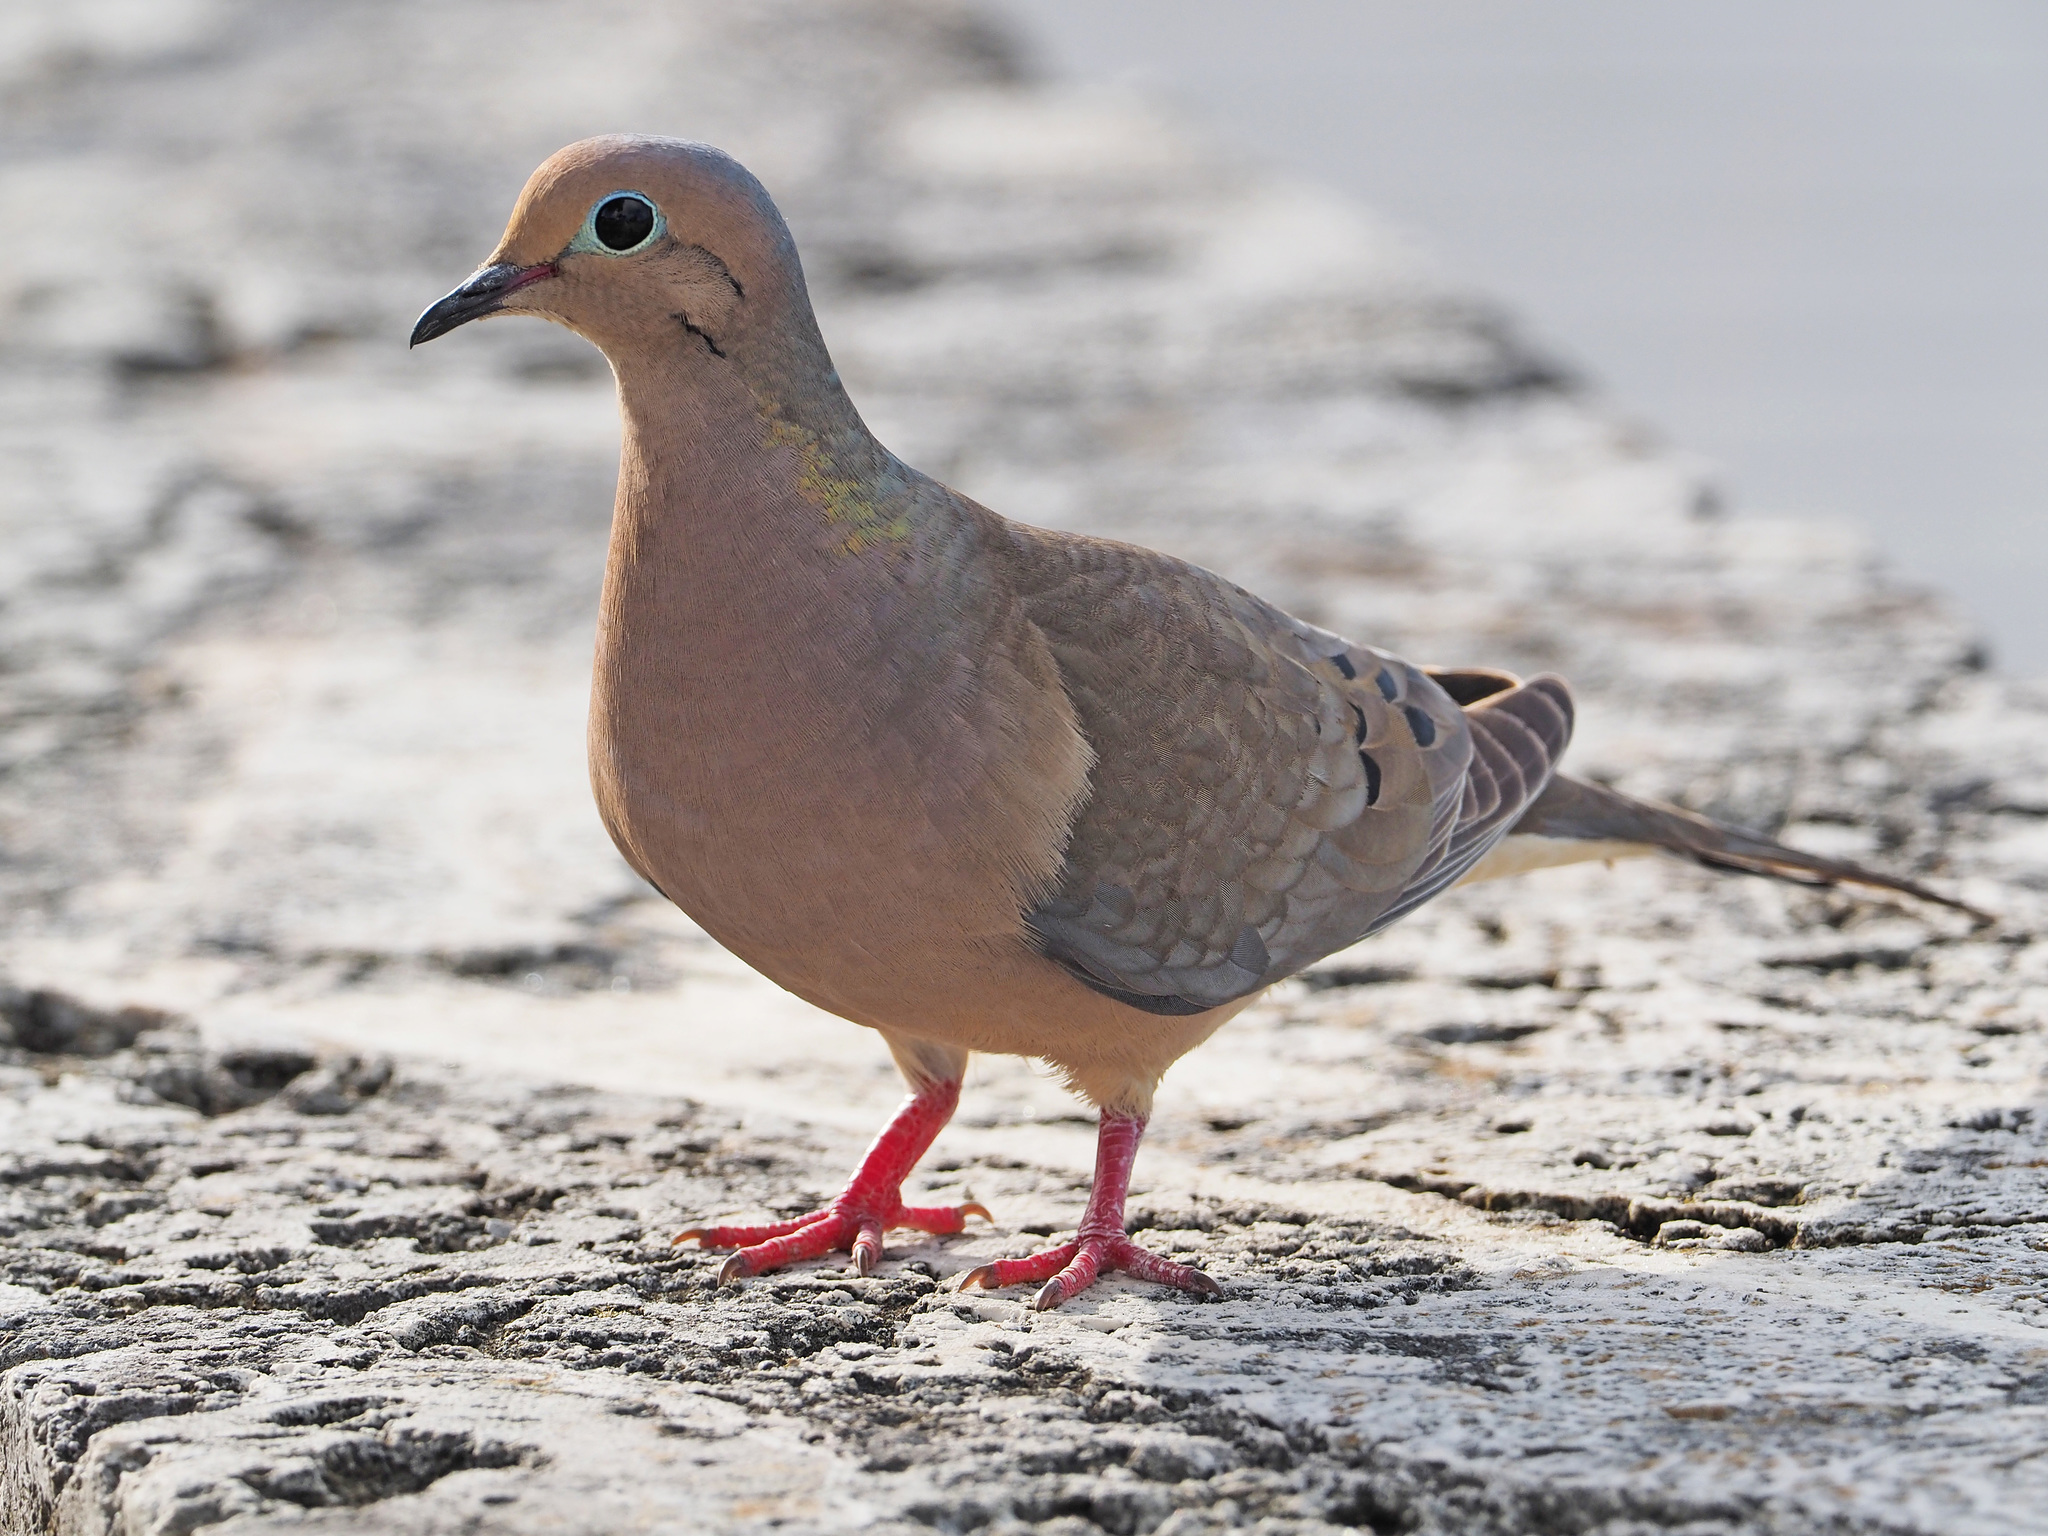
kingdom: Animalia
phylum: Chordata
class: Aves
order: Columbiformes
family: Columbidae
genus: Zenaida
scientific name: Zenaida macroura
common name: Mourning dove
